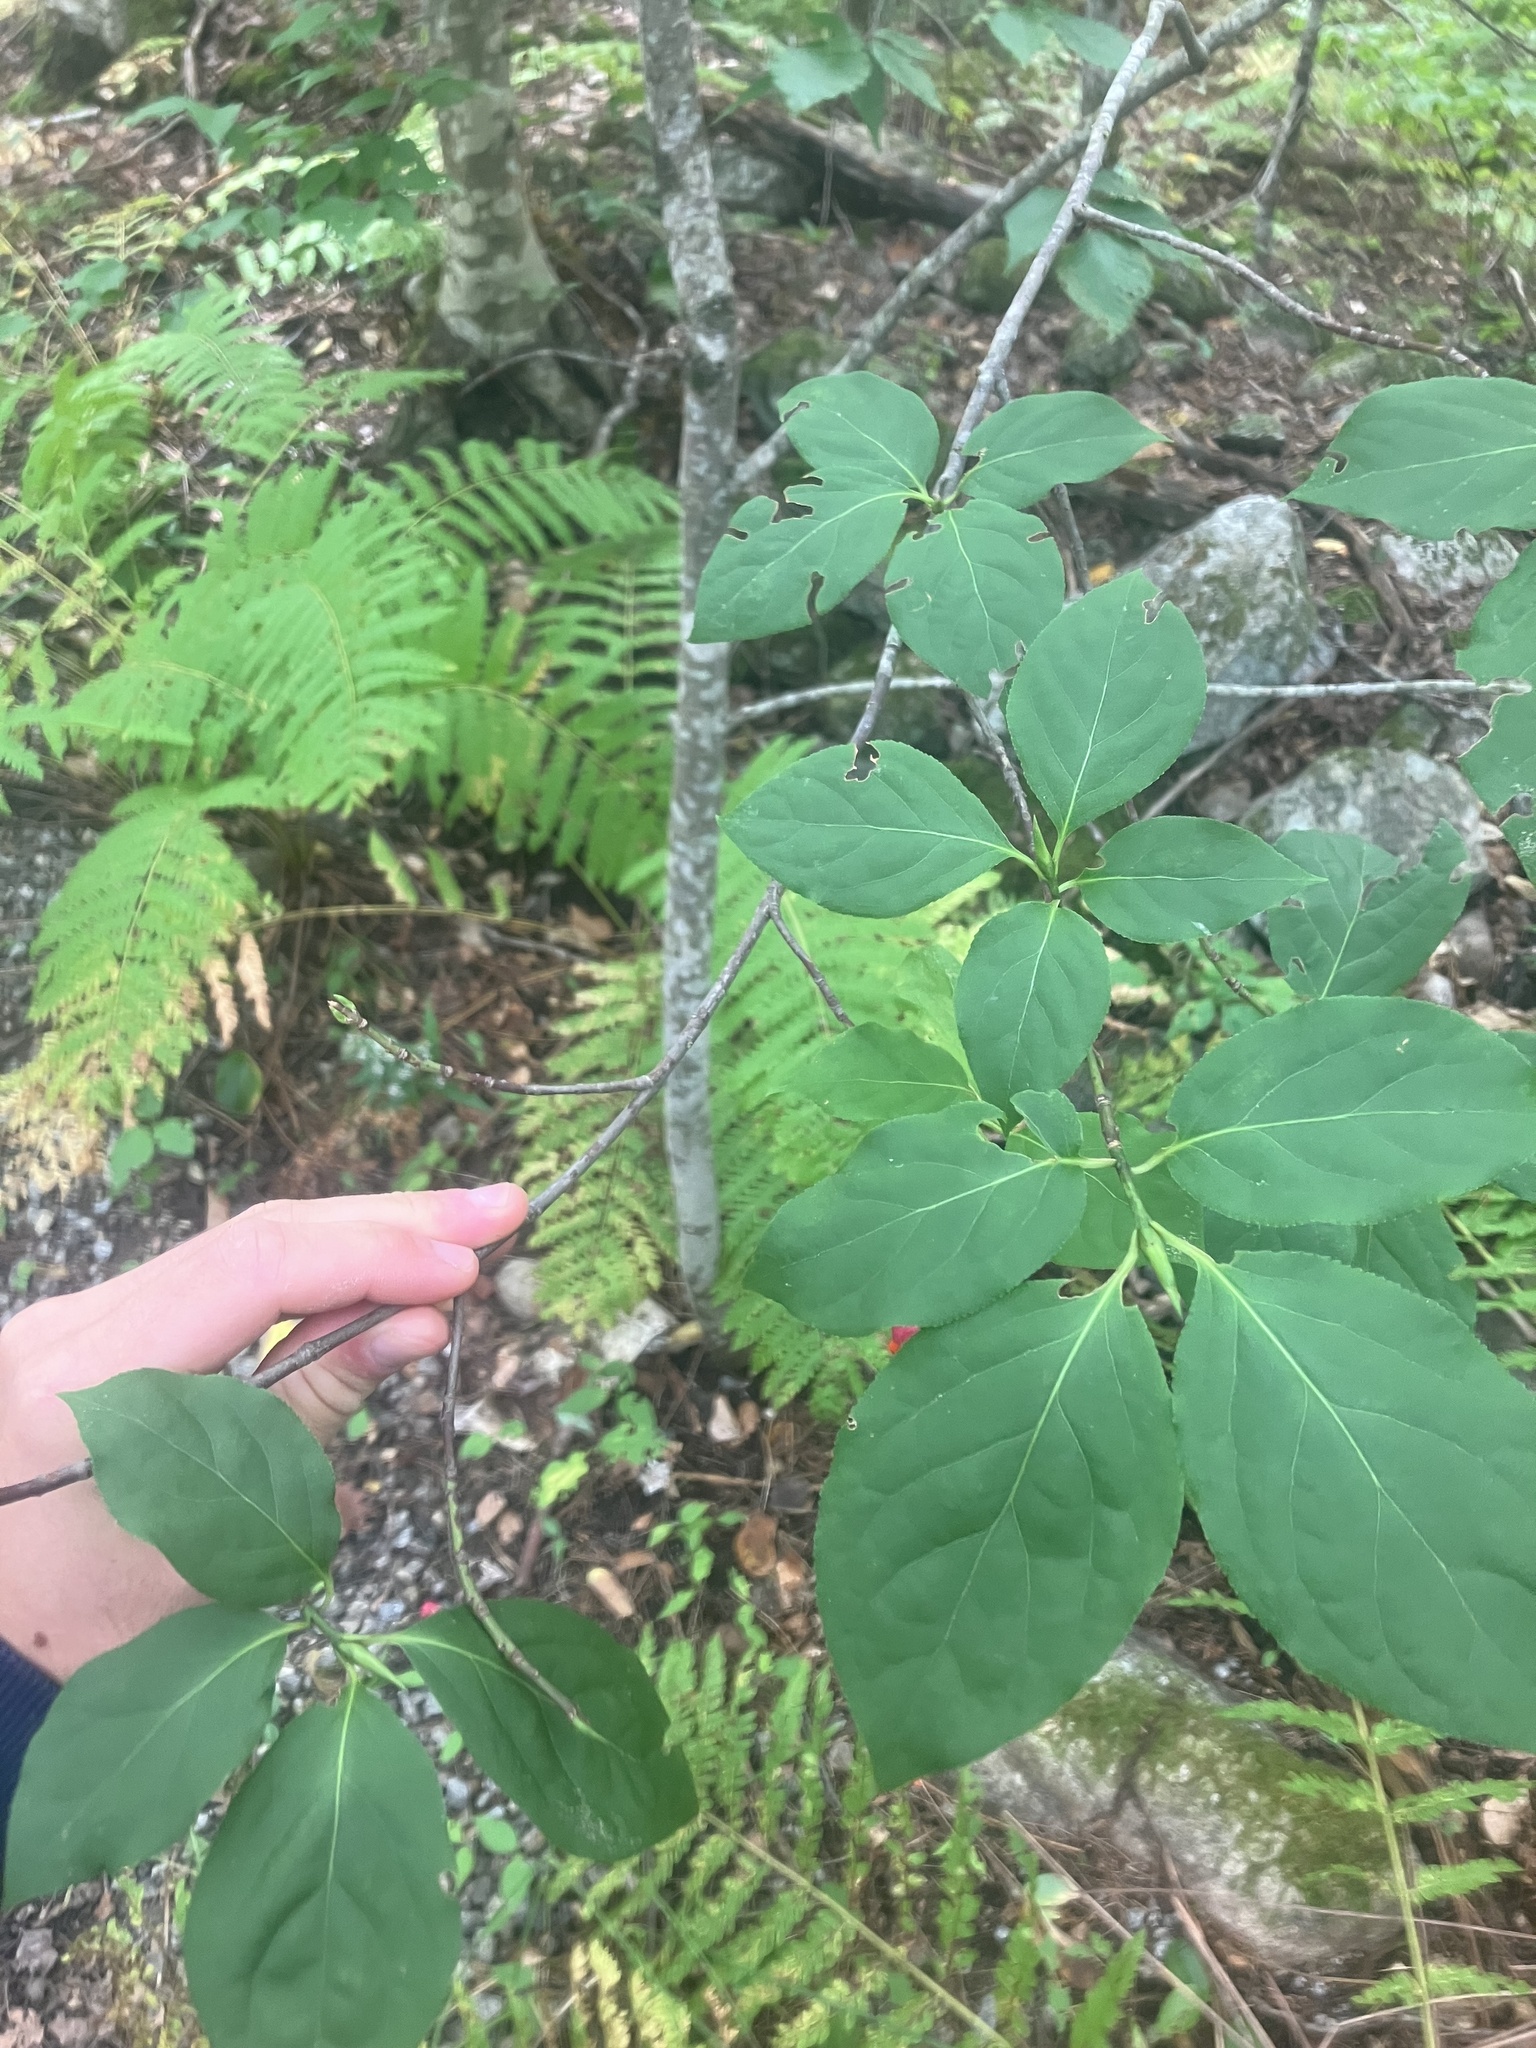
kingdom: Plantae
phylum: Tracheophyta
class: Magnoliopsida
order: Celastrales
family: Celastraceae
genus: Euonymus
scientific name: Euonymus latifolius
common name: Large-leaved spindle
